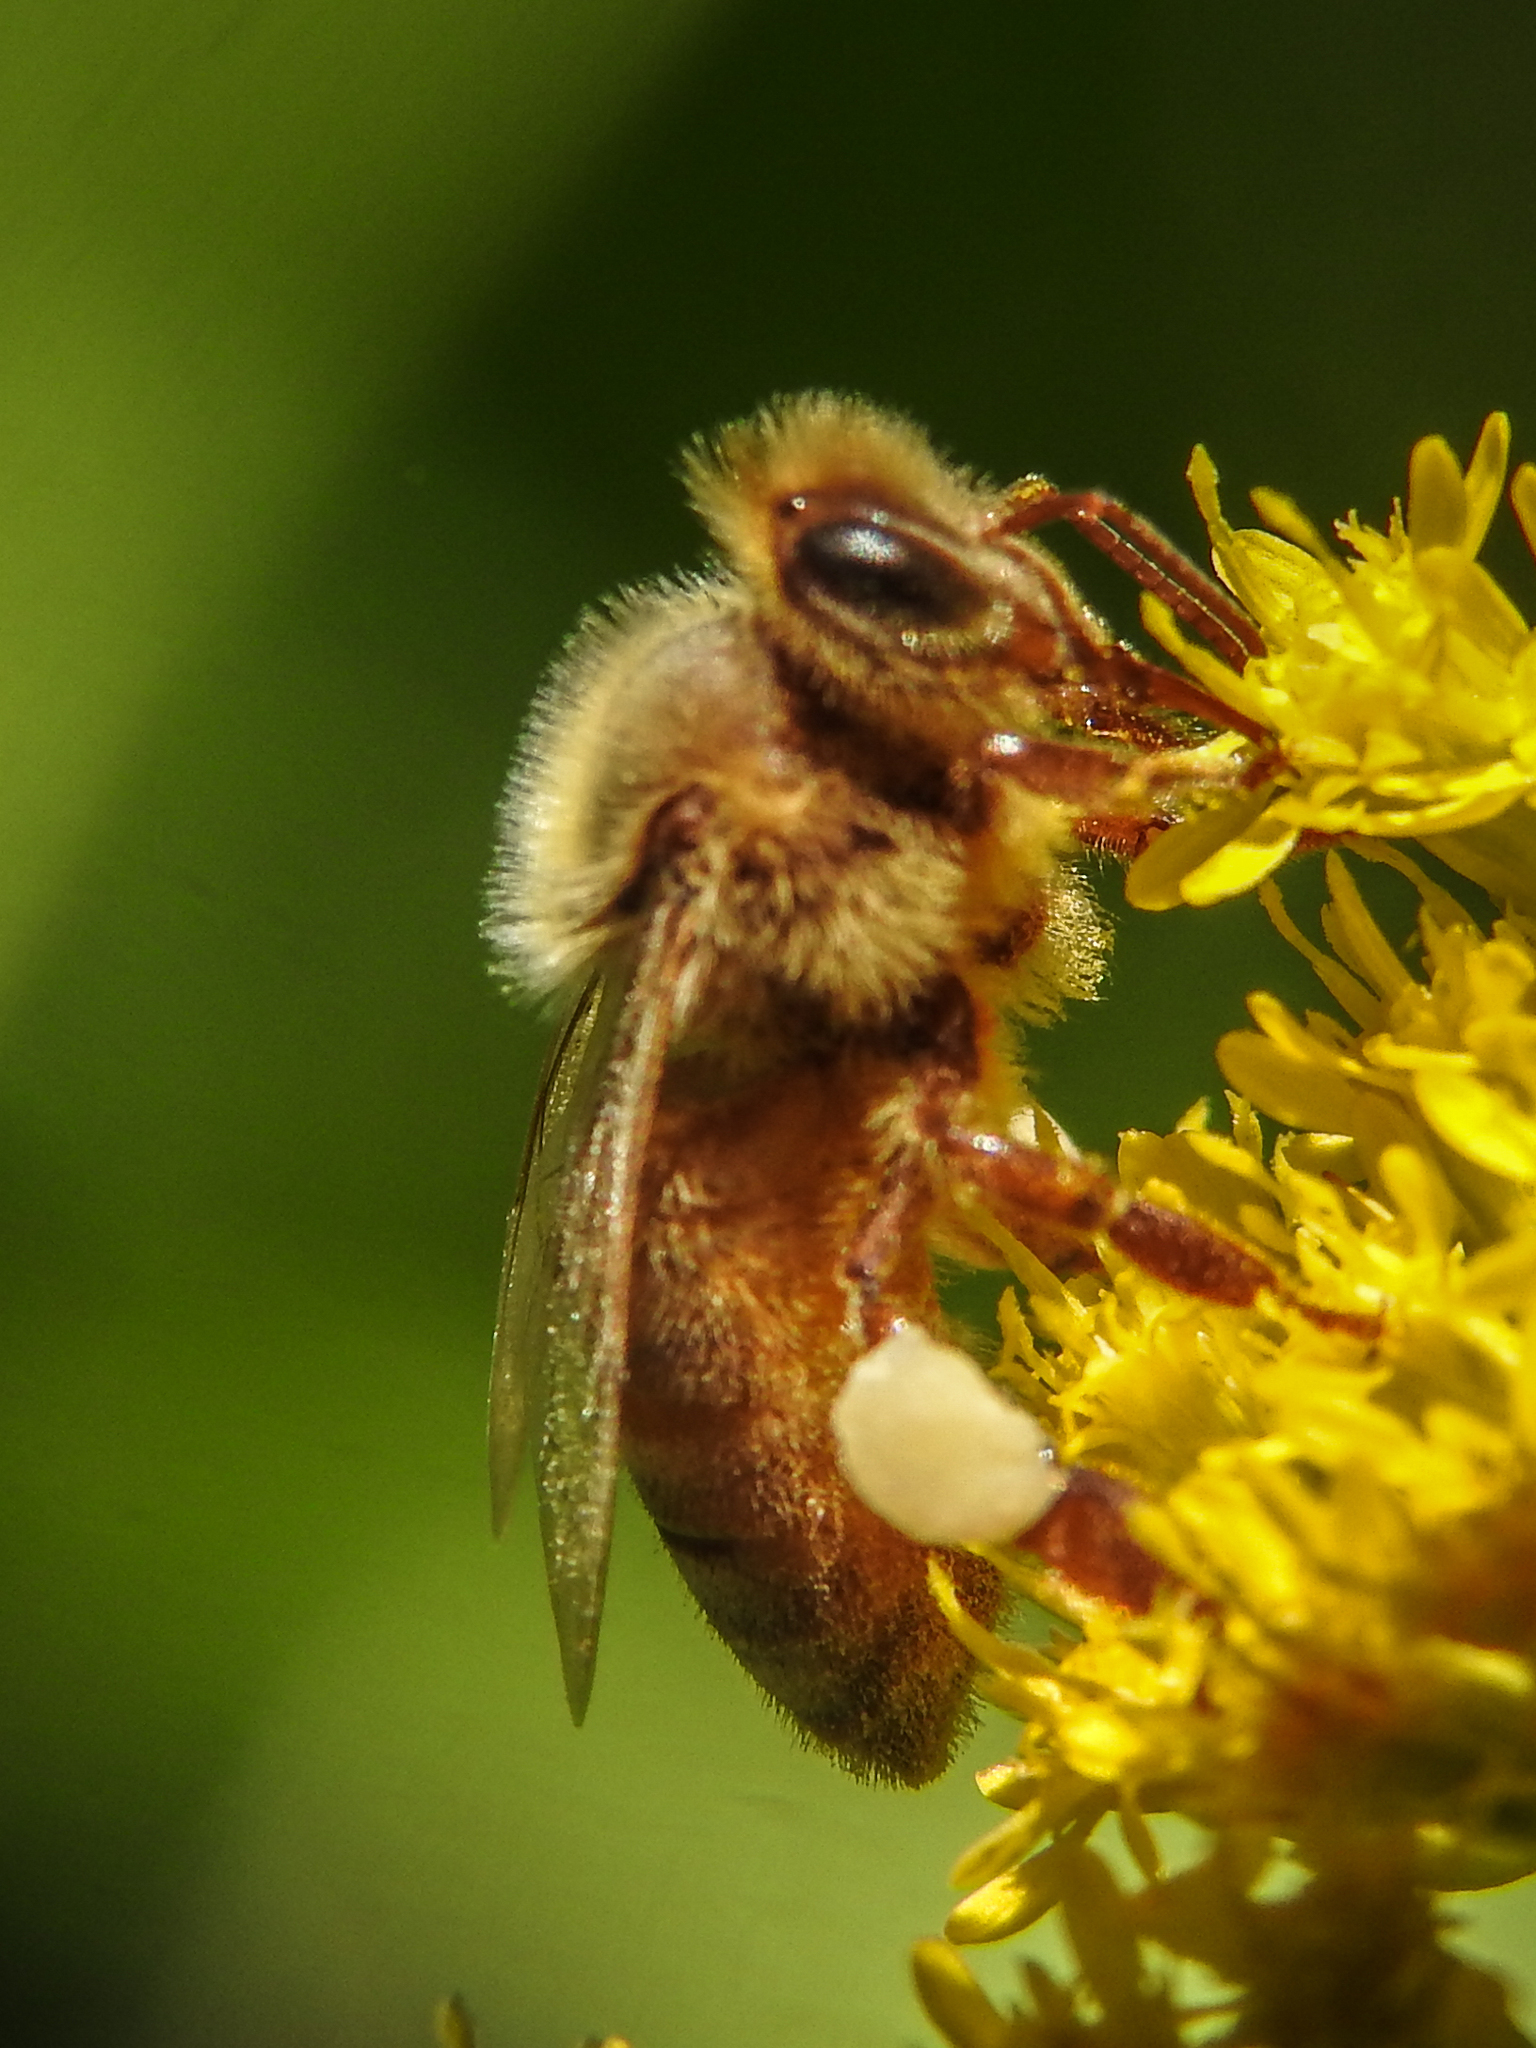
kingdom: Animalia
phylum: Arthropoda
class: Insecta
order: Hymenoptera
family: Apidae
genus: Apis
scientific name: Apis mellifera
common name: Honey bee
